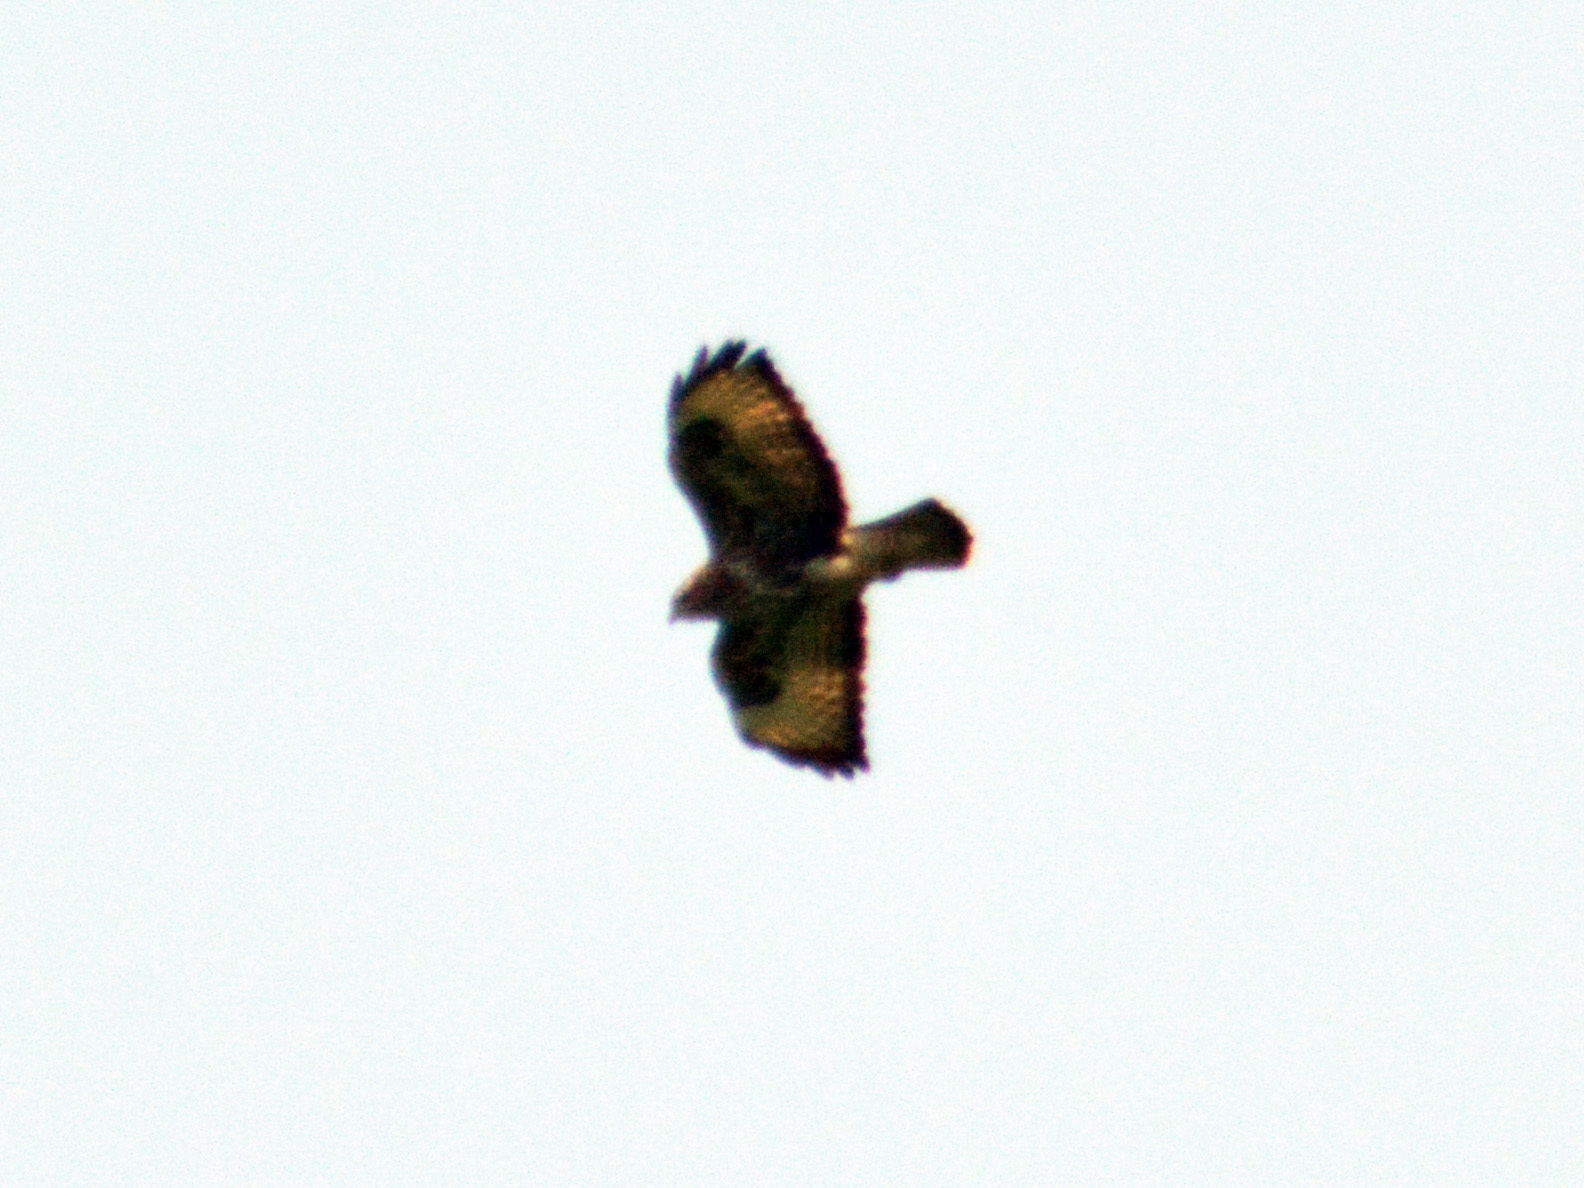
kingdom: Animalia
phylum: Chordata
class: Aves
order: Accipitriformes
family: Accipitridae
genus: Buteo
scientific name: Buteo buteo
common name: Common buzzard
